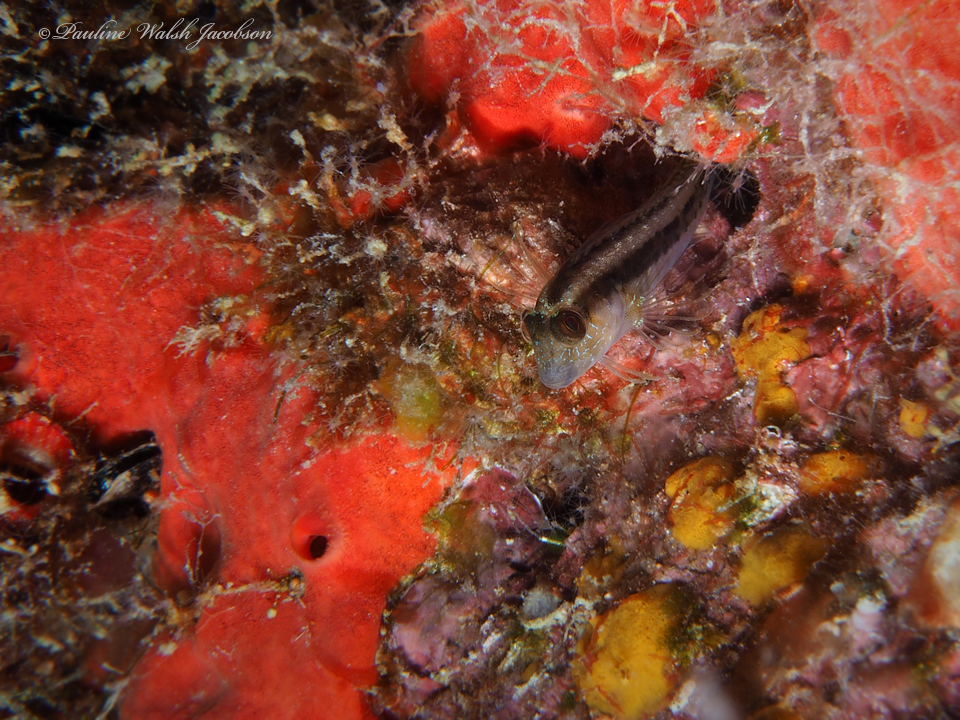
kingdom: Animalia
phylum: Chordata
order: Perciformes
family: Blenniidae
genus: Parablennius
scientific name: Parablennius marmoreus
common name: Seaweed blenny
